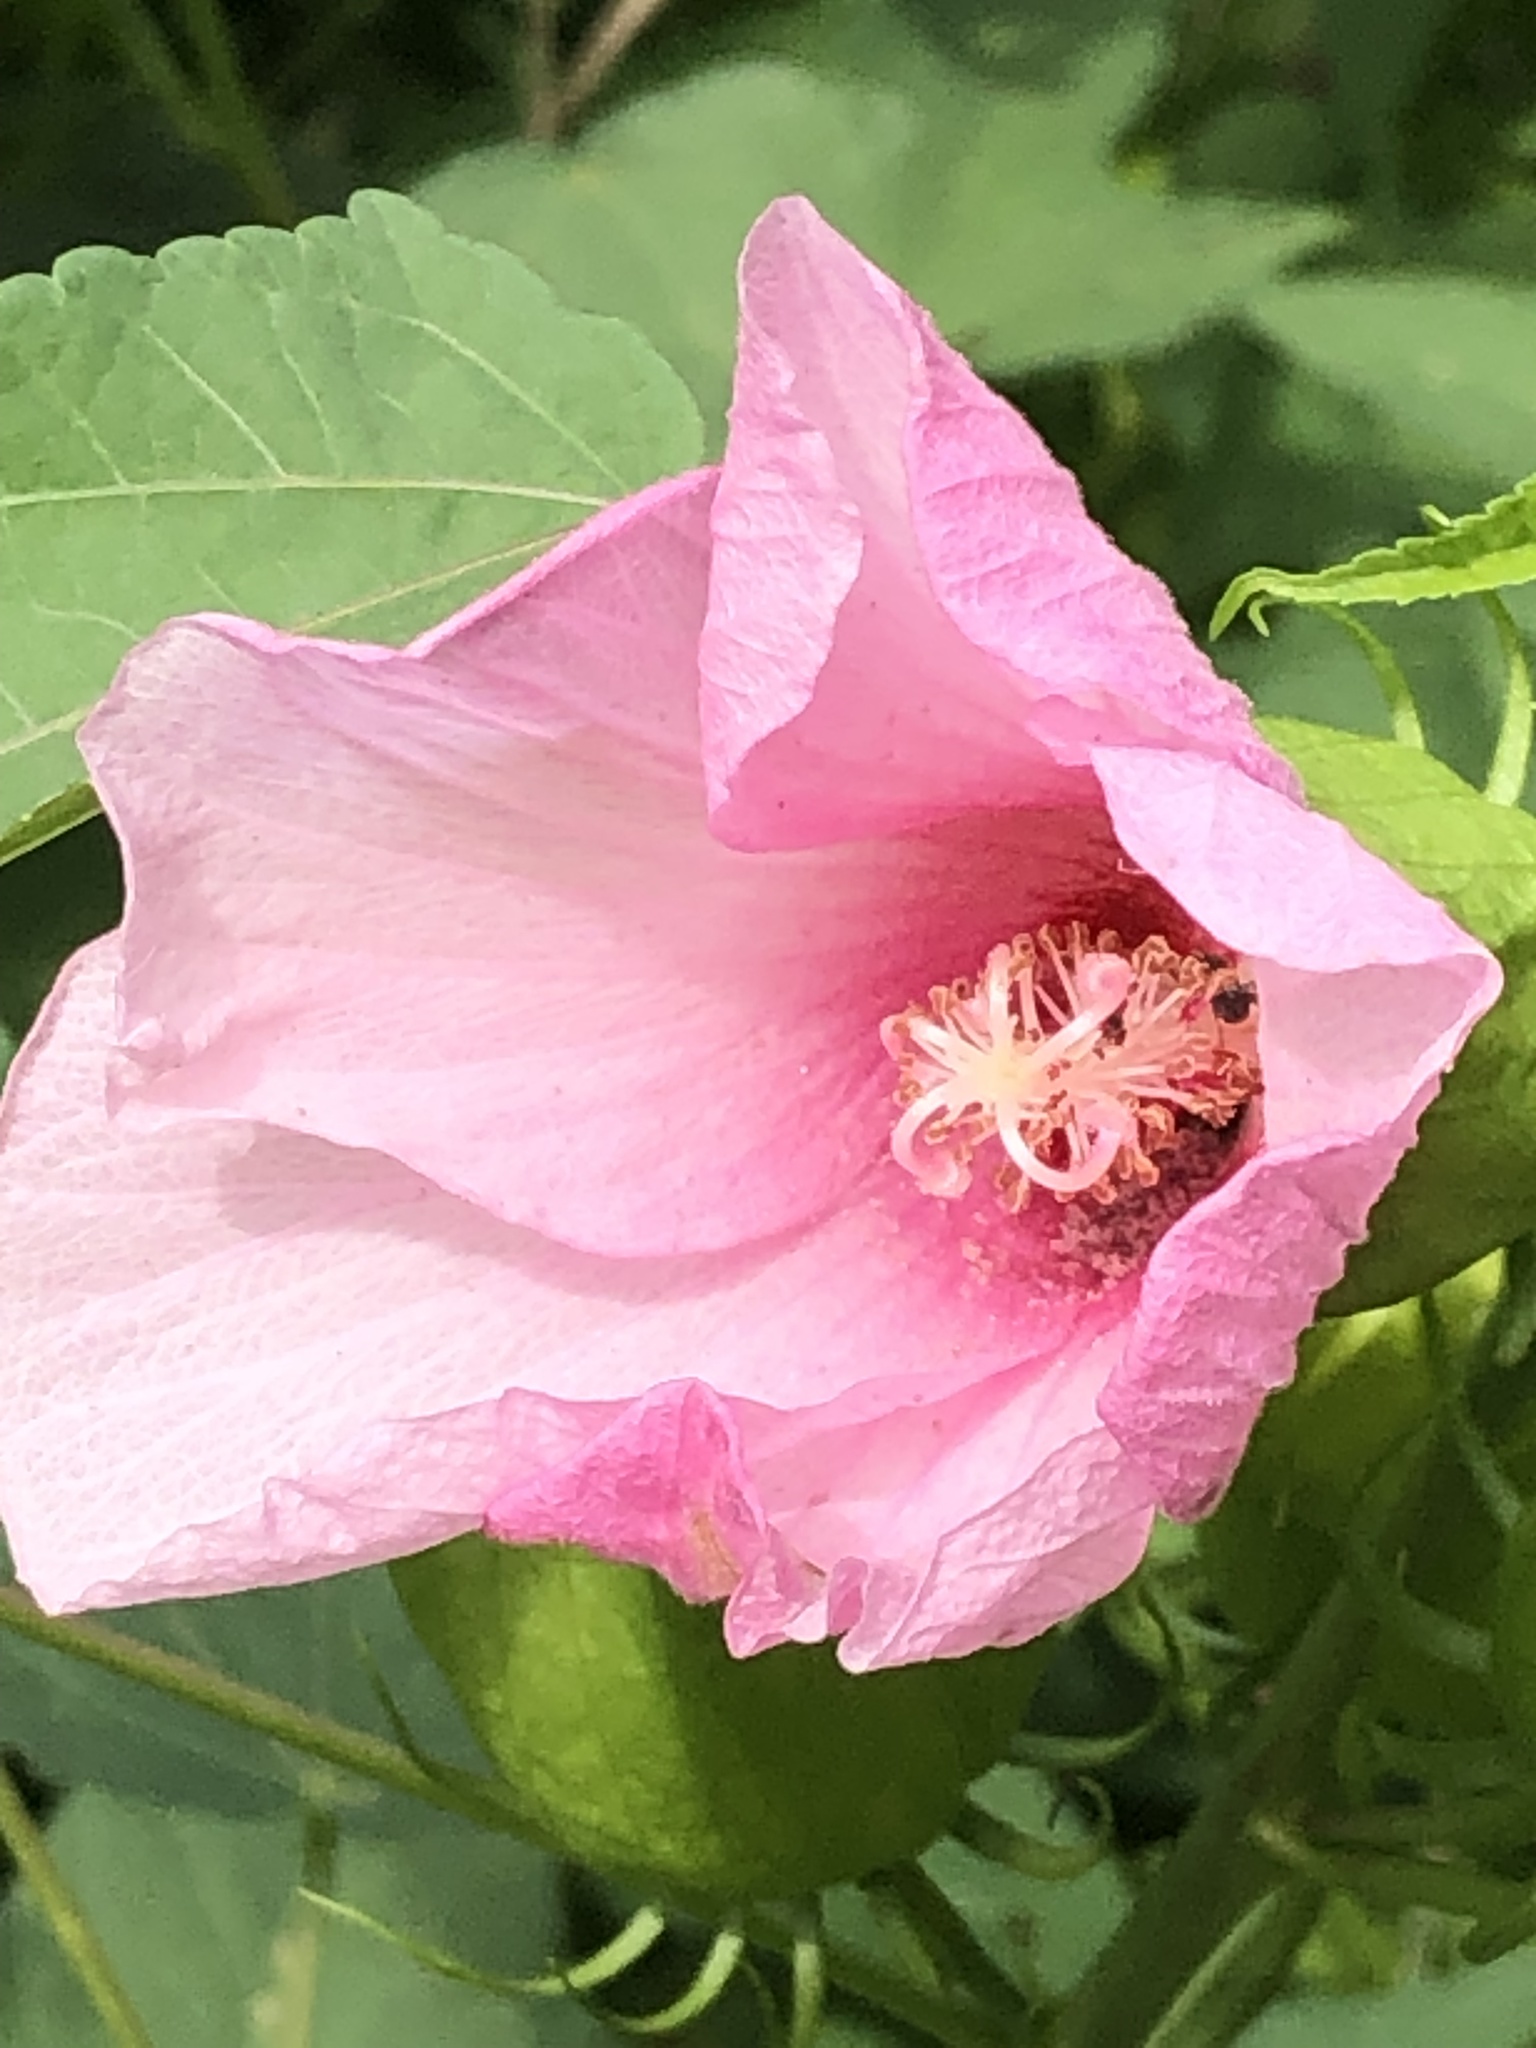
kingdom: Plantae
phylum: Tracheophyta
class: Magnoliopsida
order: Malvales
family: Malvaceae
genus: Hibiscus
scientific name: Hibiscus moscheutos
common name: Common rose-mallow
